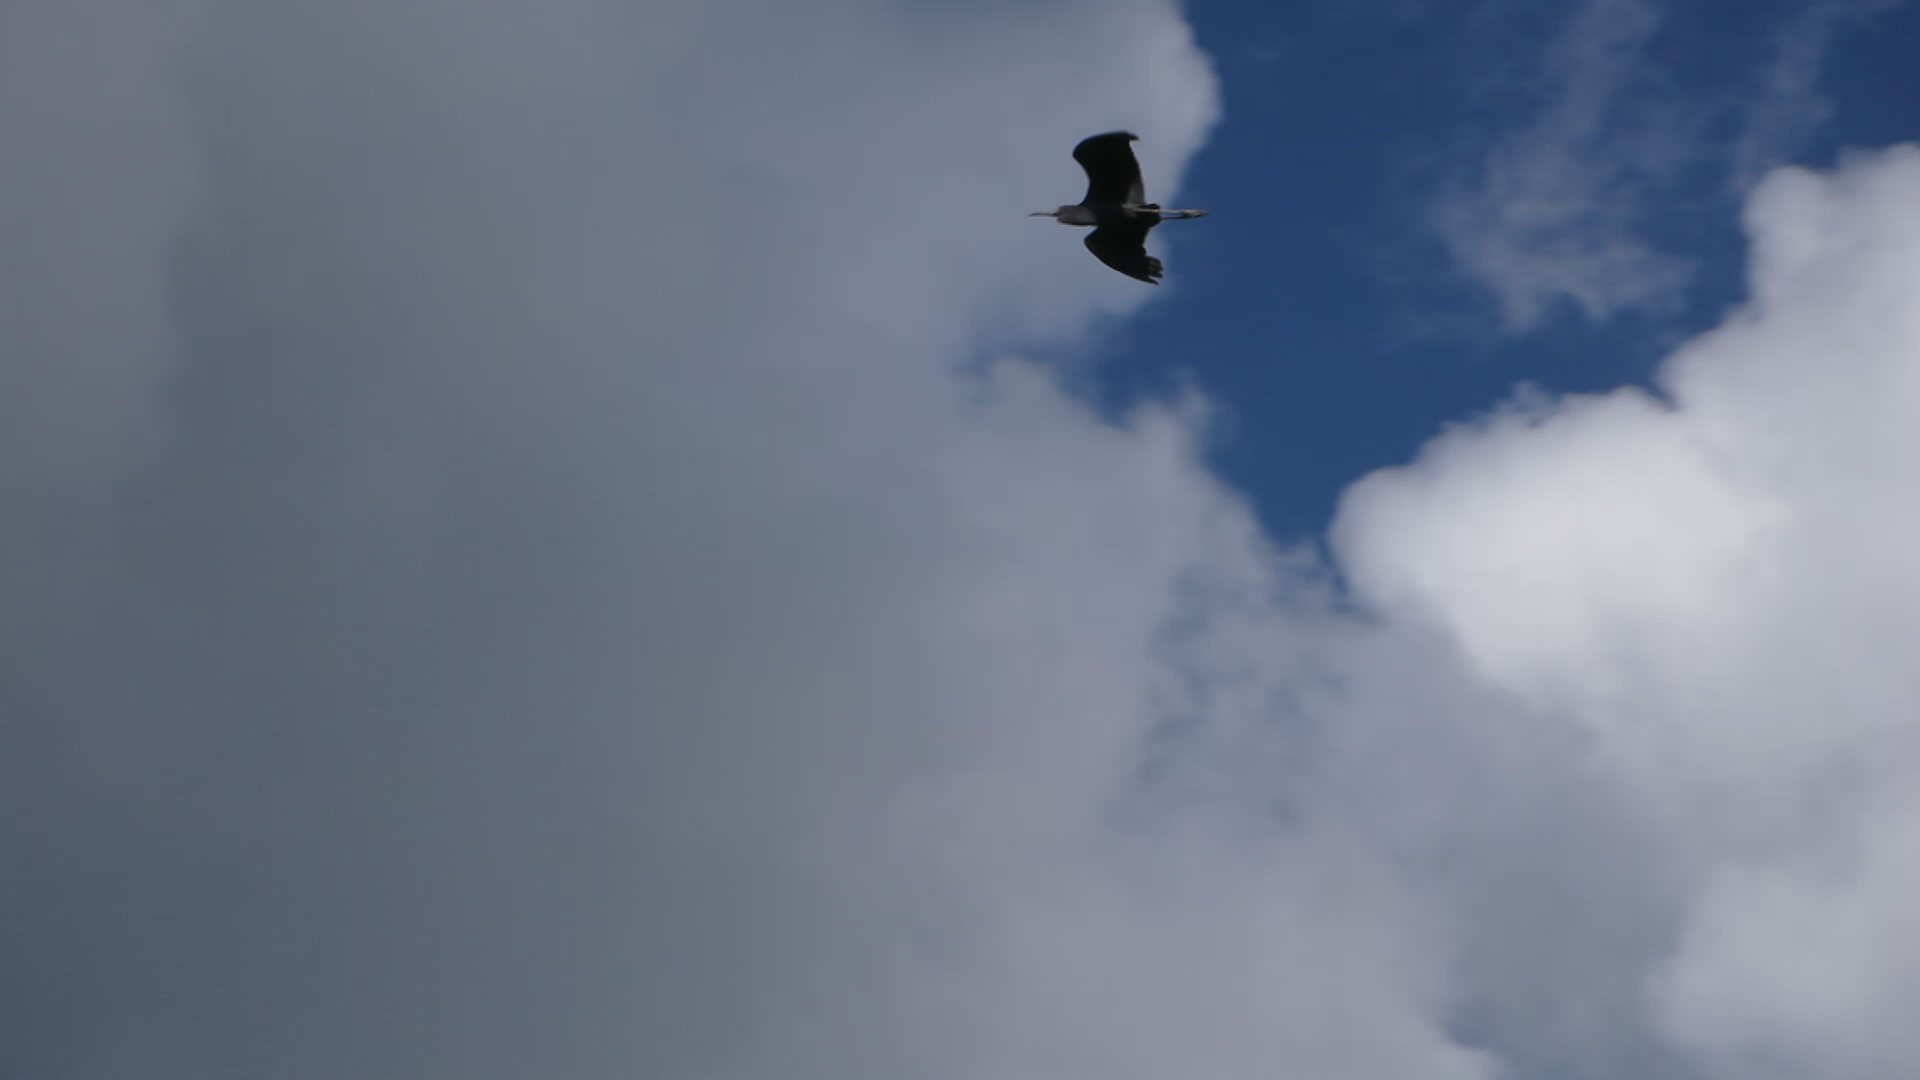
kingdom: Animalia
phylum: Chordata
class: Aves
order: Pelecaniformes
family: Ardeidae
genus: Egretta
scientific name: Egretta caerulea
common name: Little blue heron
